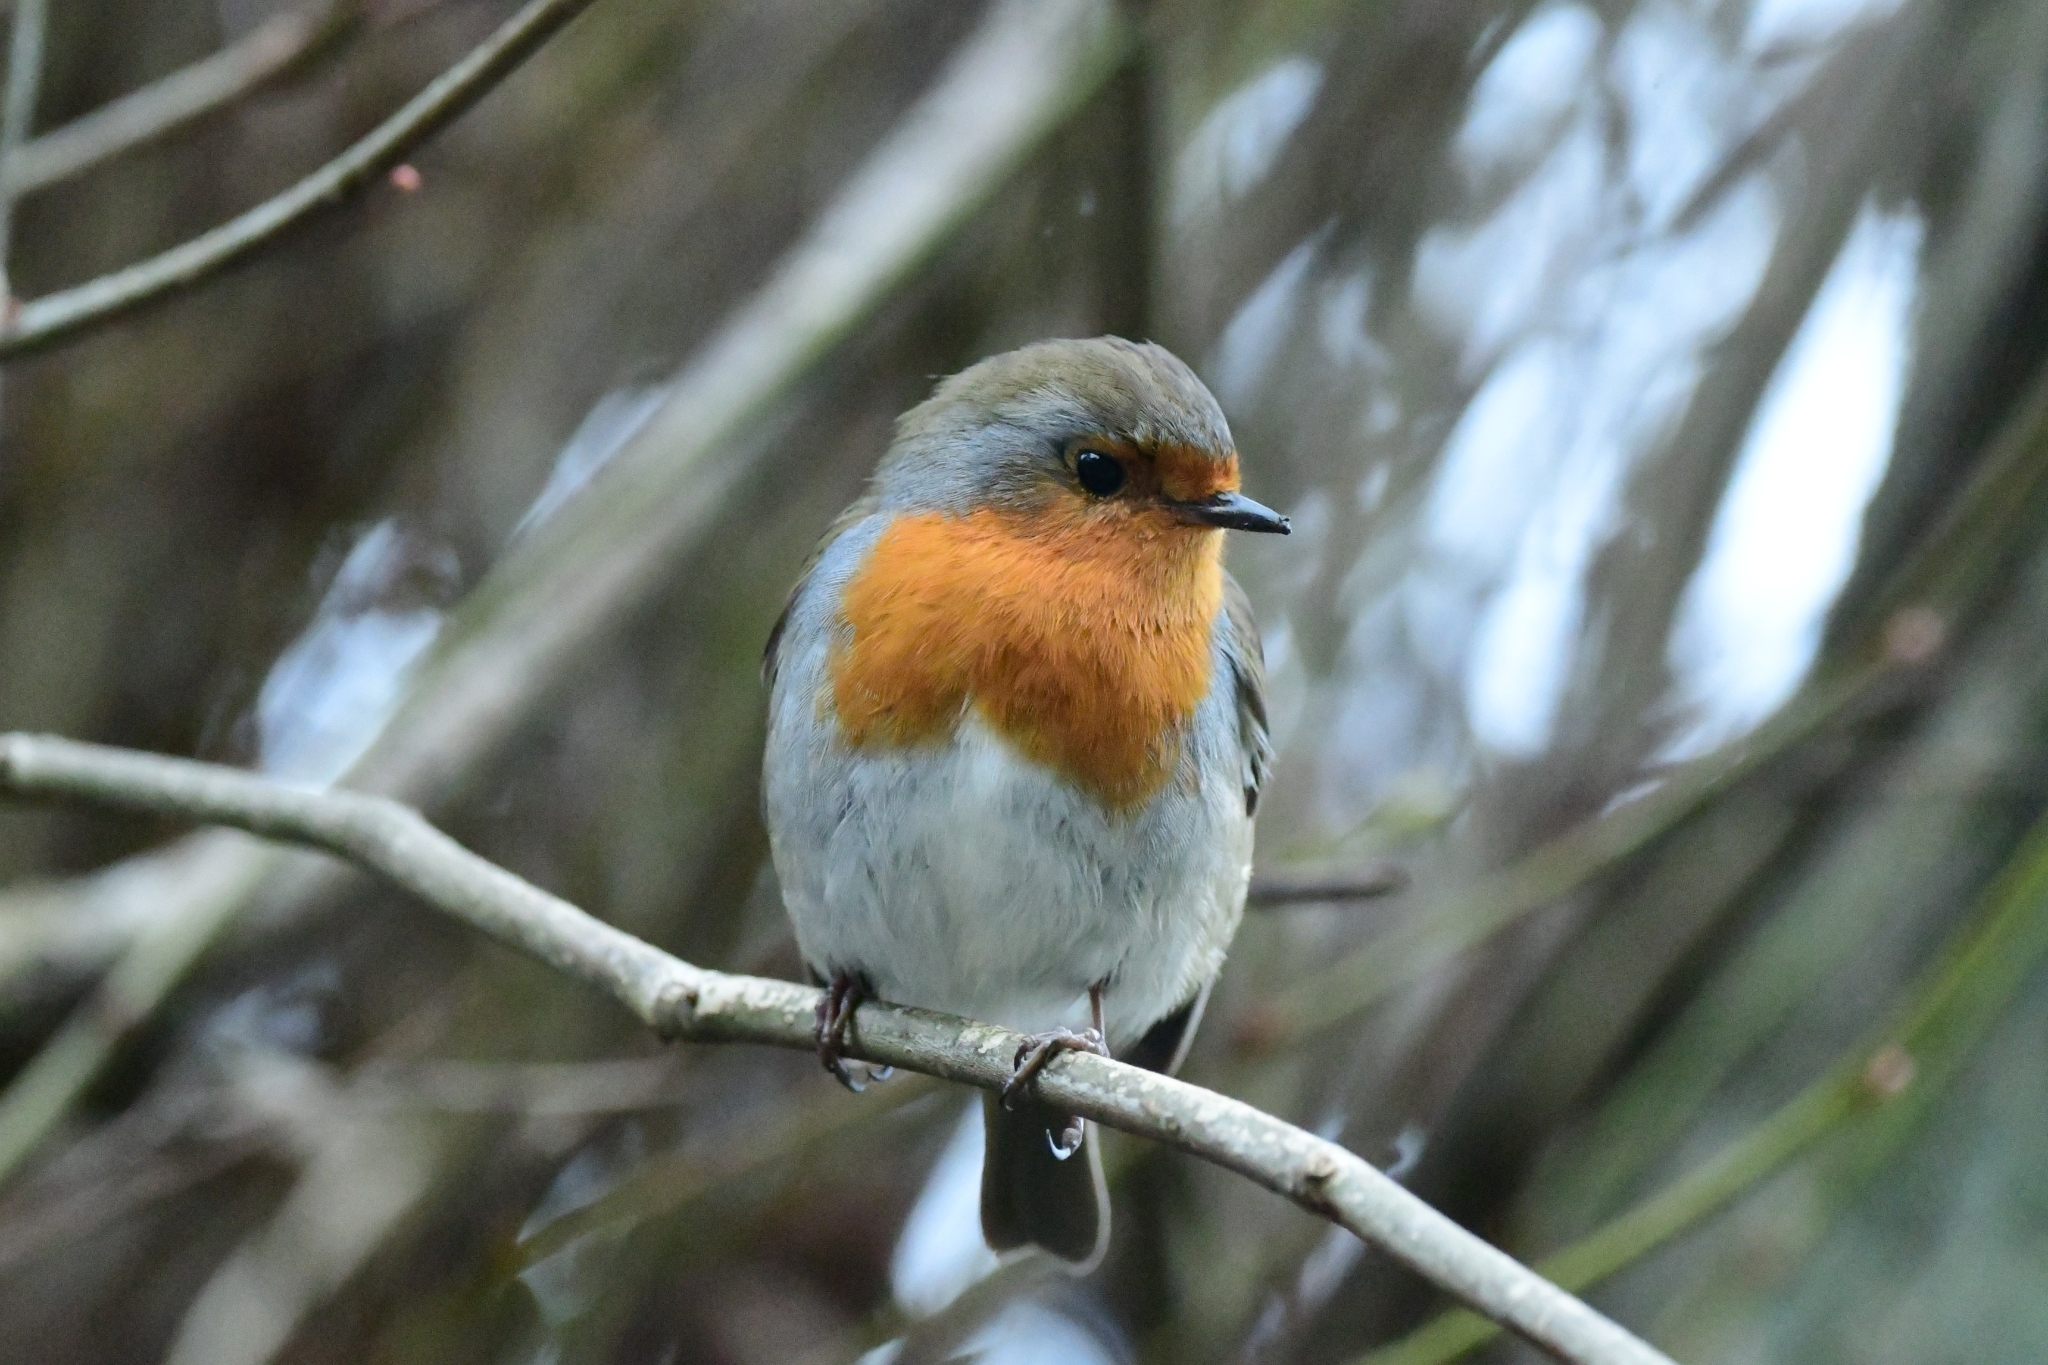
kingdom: Animalia
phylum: Chordata
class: Aves
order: Passeriformes
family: Muscicapidae
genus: Erithacus
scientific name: Erithacus rubecula
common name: European robin
